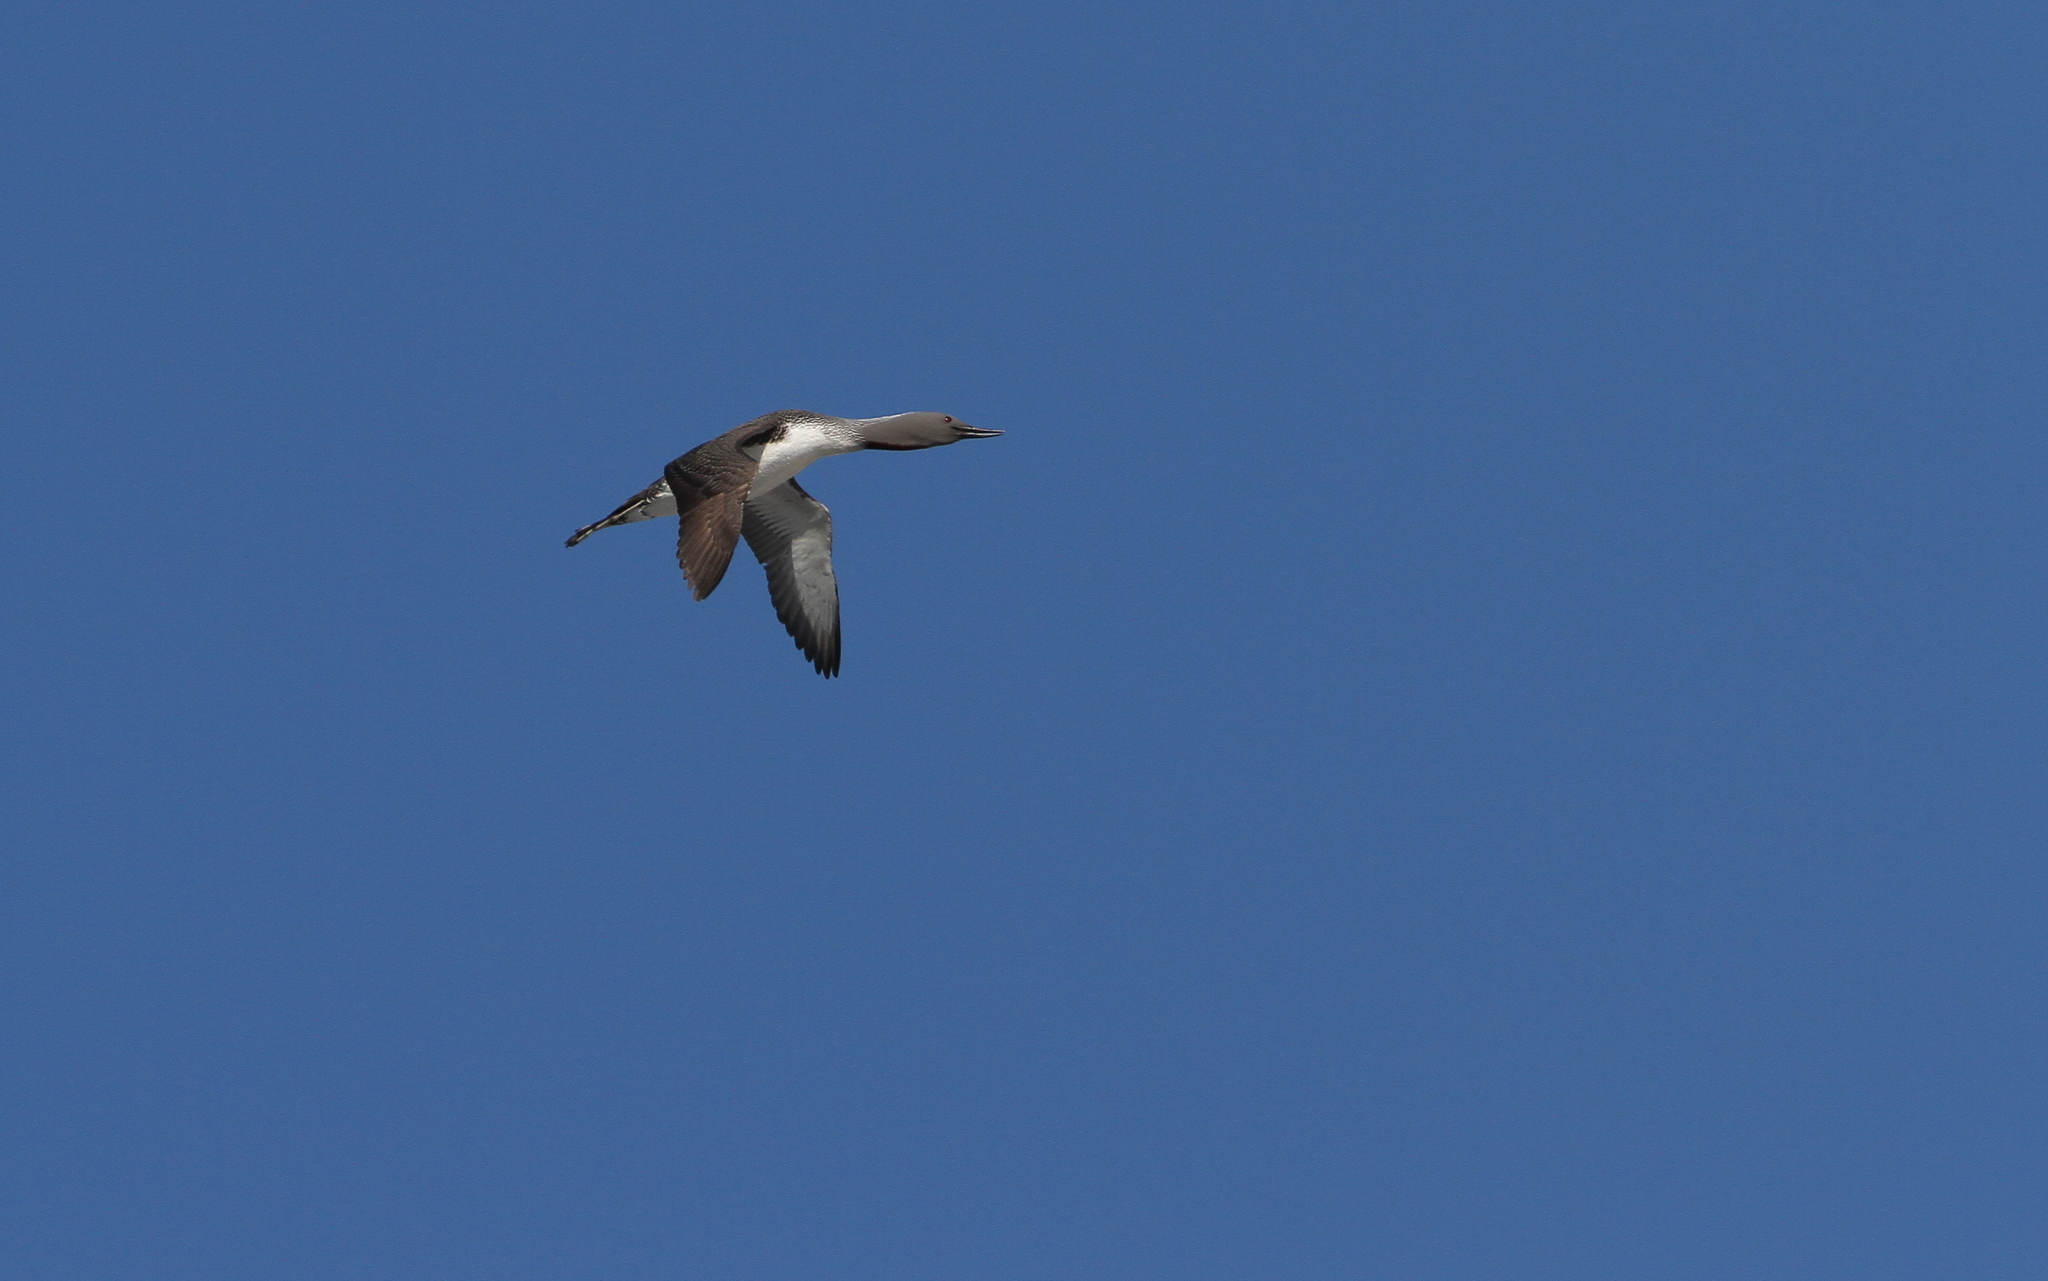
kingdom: Animalia
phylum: Chordata
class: Aves
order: Gaviiformes
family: Gaviidae
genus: Gavia
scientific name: Gavia stellata
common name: Red-throated loon
